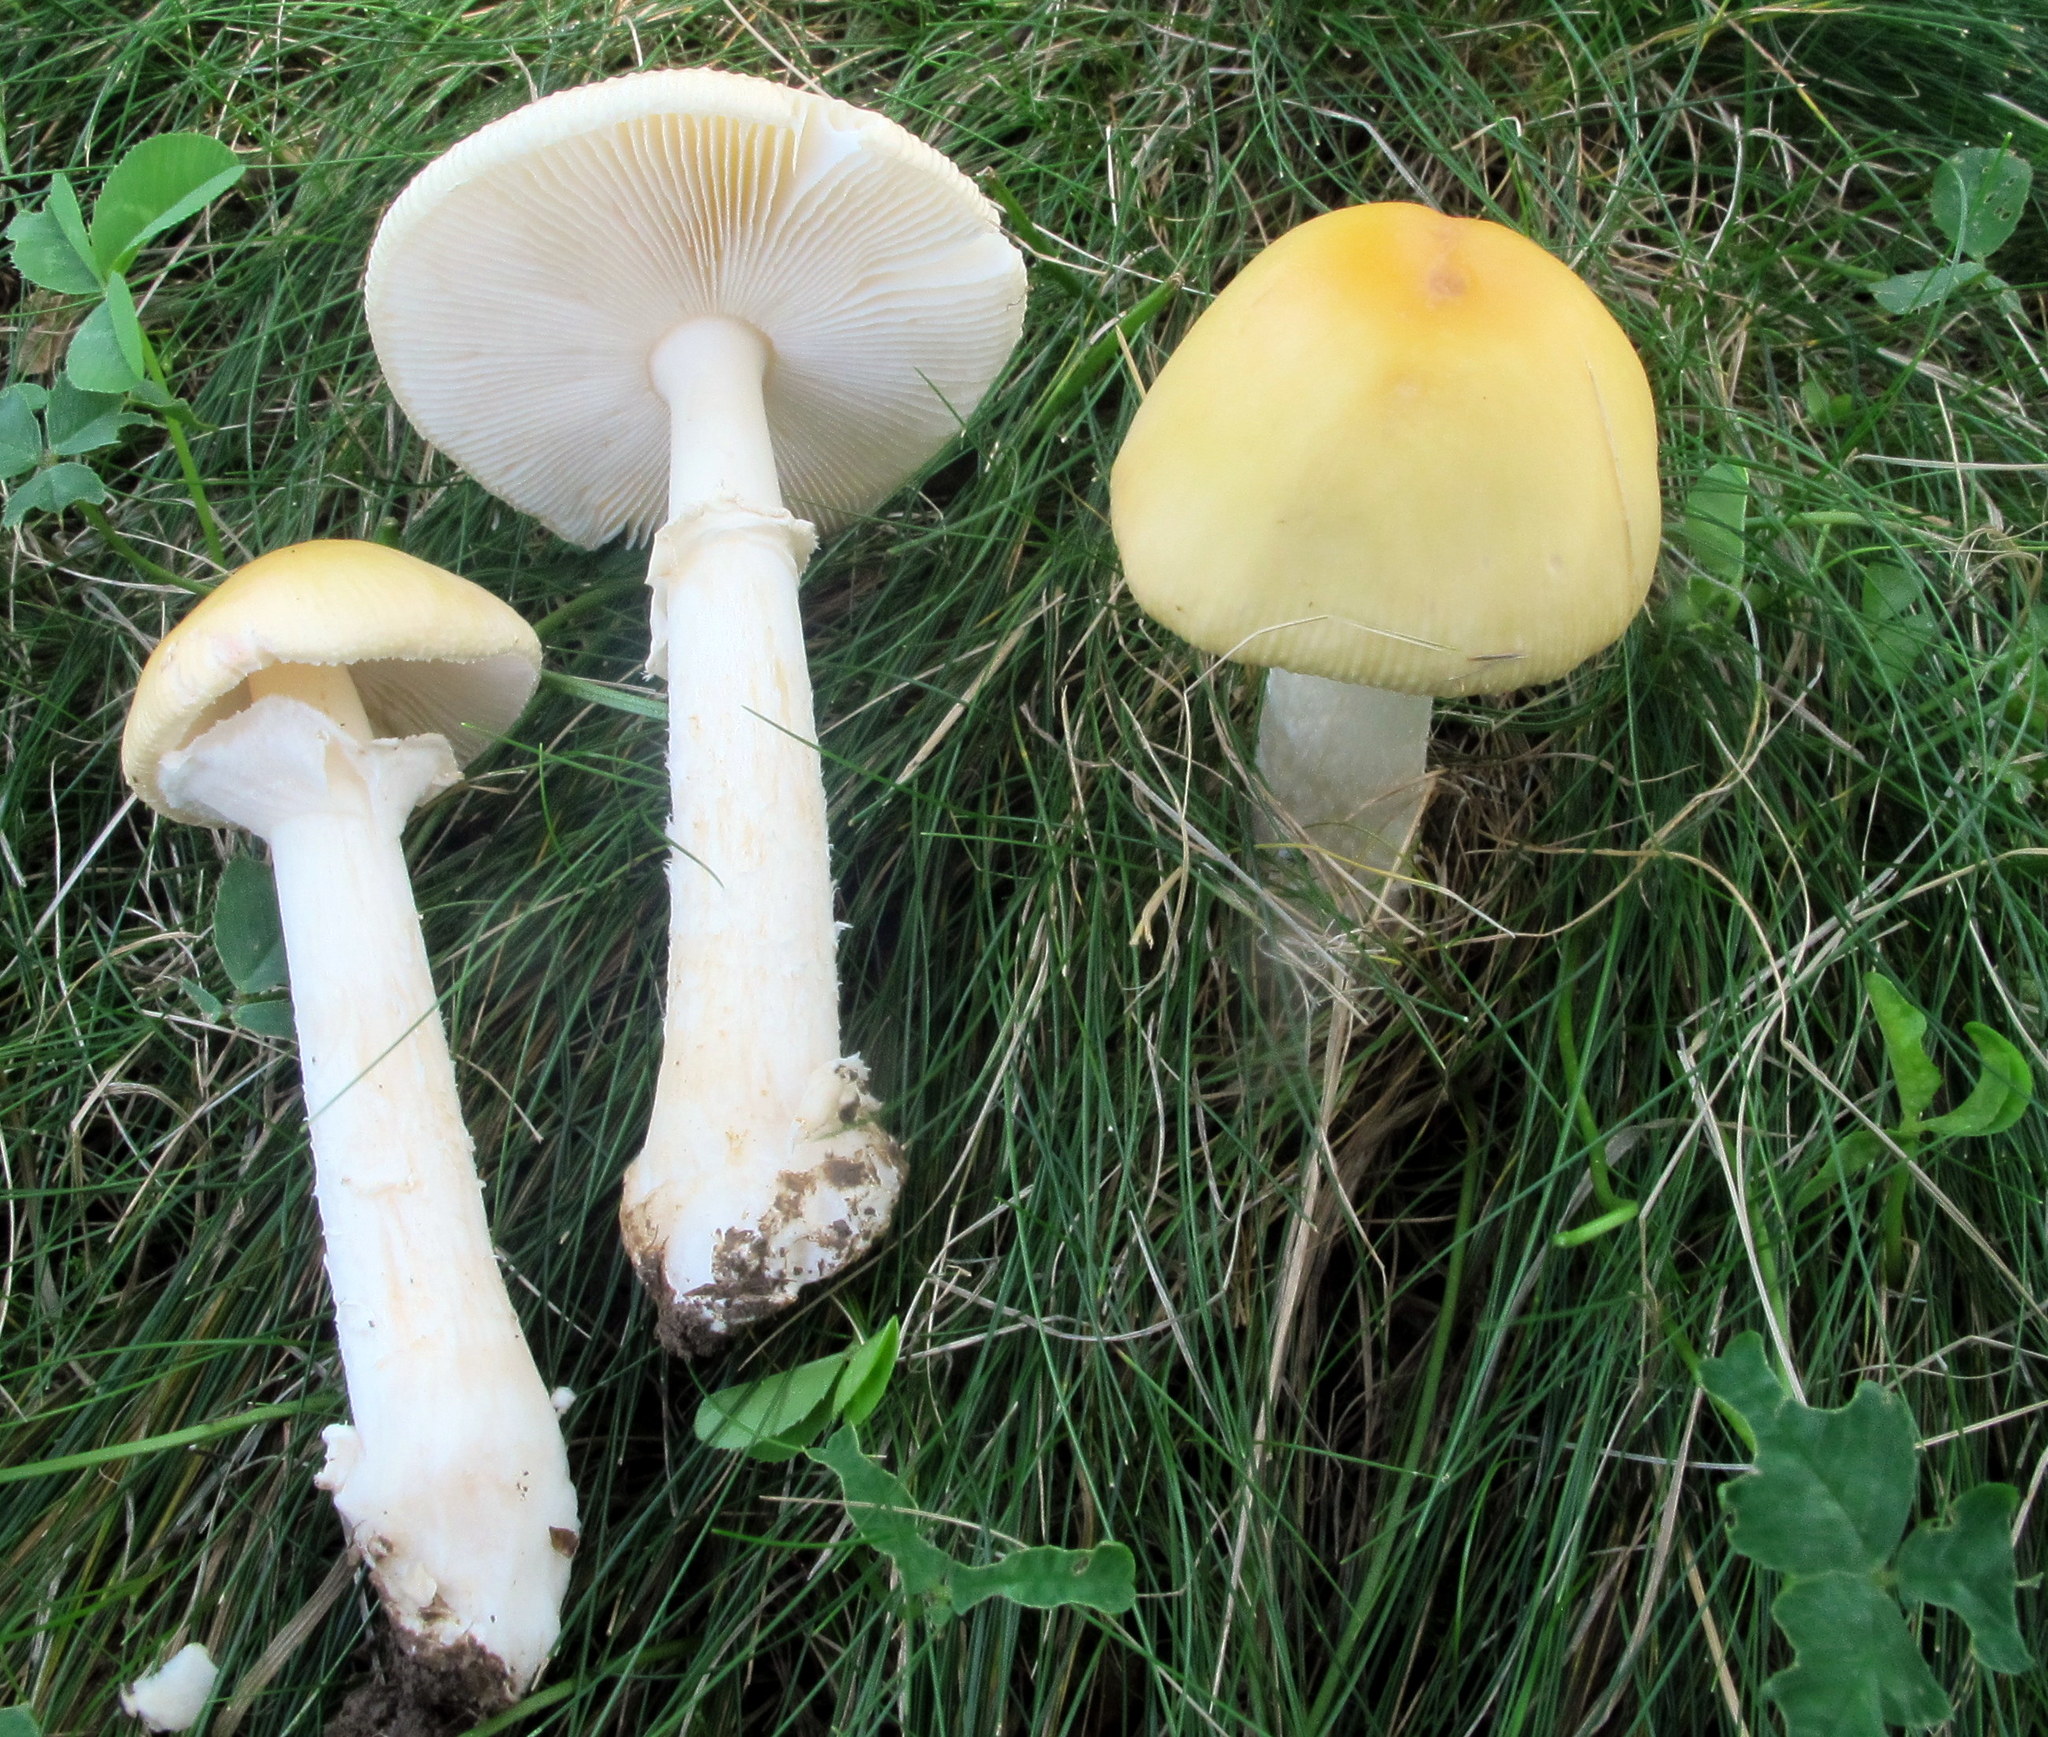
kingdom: Fungi
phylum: Basidiomycota
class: Agaricomycetes
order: Agaricales
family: Amanitaceae
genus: Amanita
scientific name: Amanita russuloides
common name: Russula-like amanita
